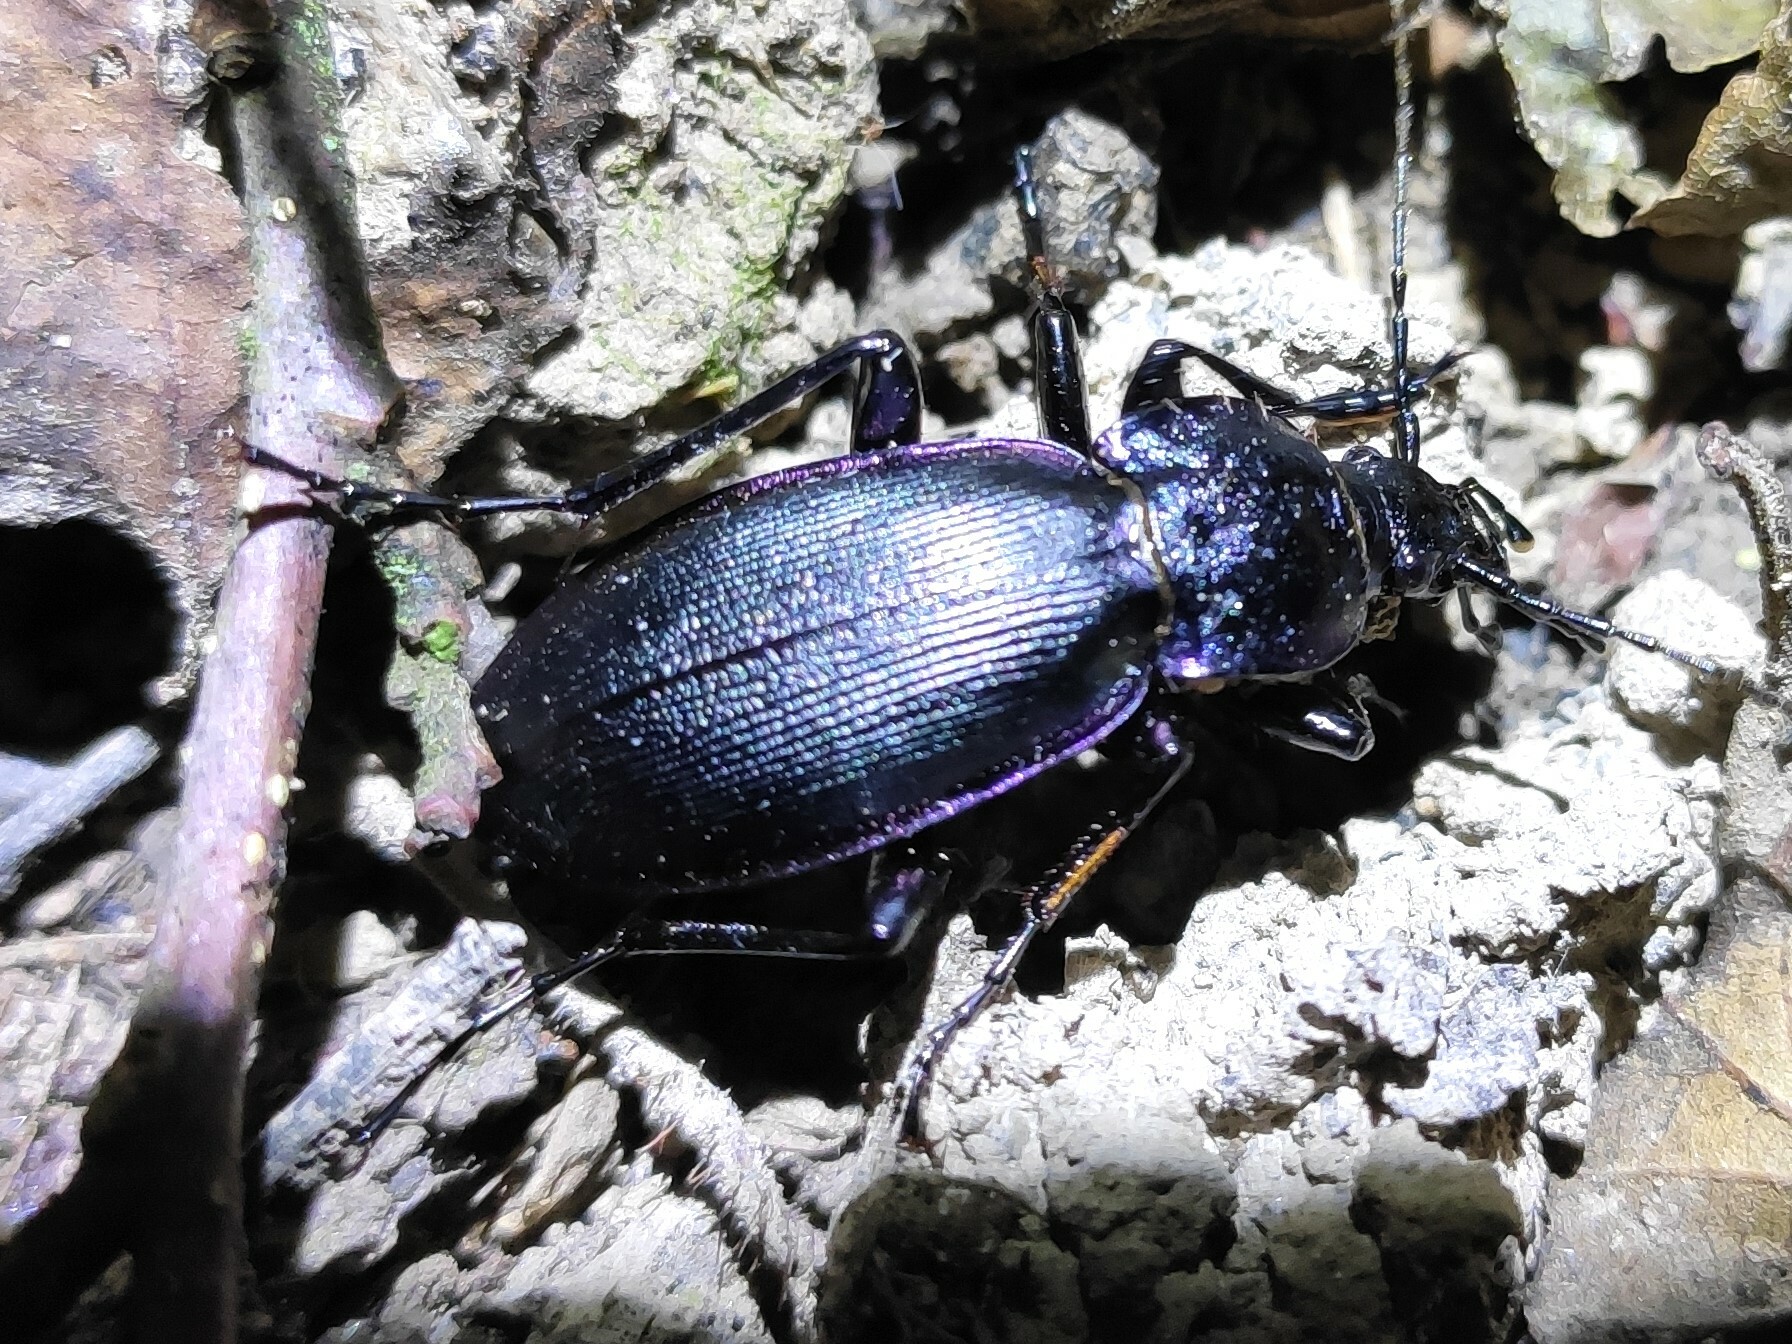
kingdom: Animalia
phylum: Arthropoda
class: Insecta
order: Coleoptera
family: Carabidae
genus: Carabus
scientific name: Carabus purpurascens
